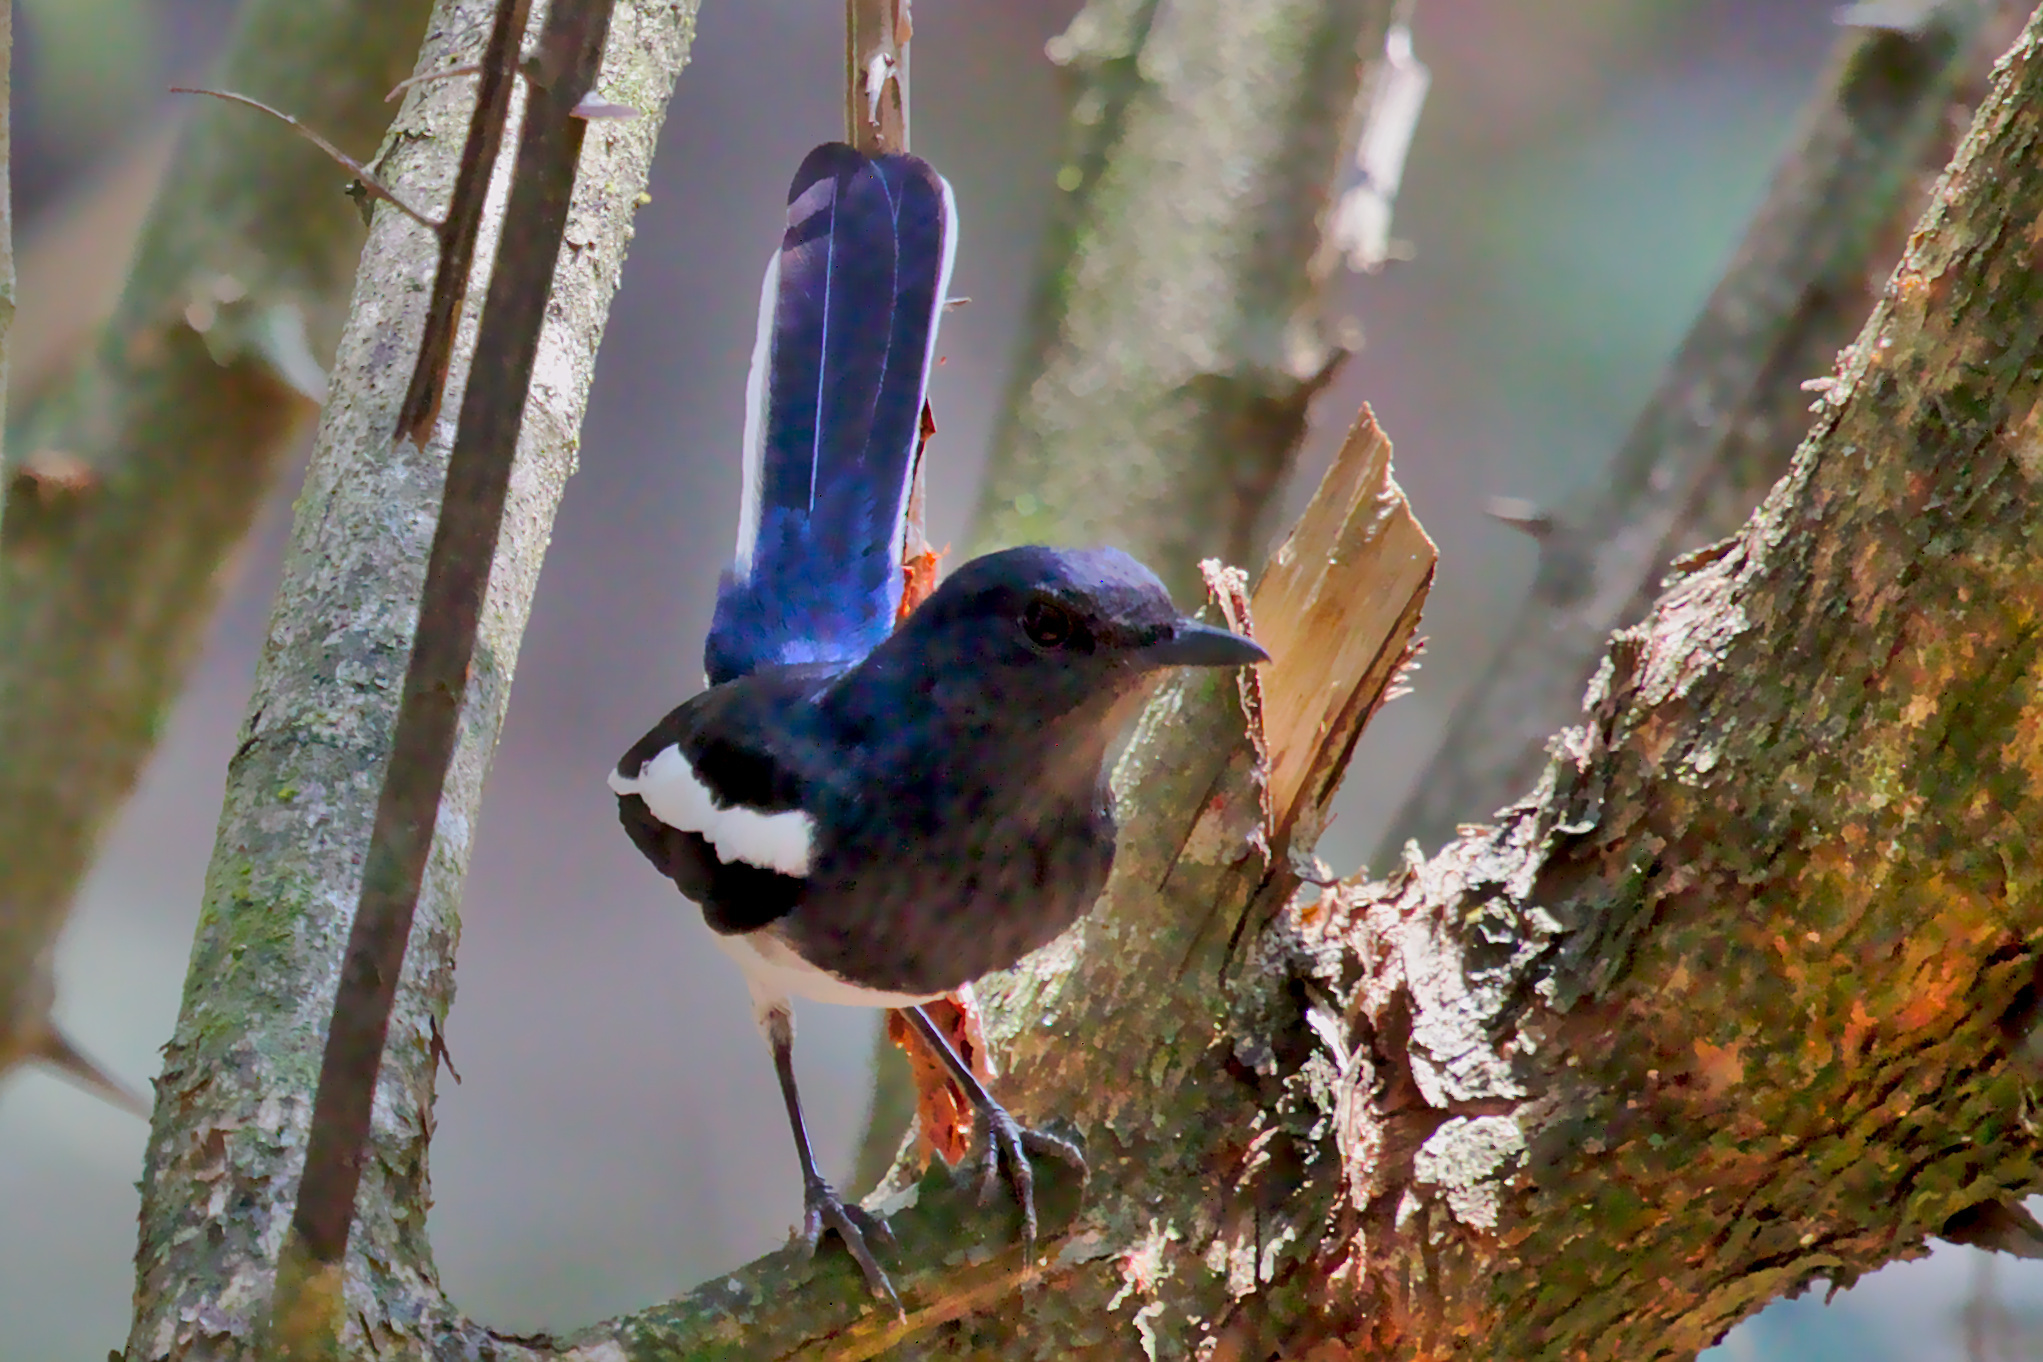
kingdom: Animalia
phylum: Chordata
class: Aves
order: Passeriformes
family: Muscicapidae
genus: Copsychus
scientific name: Copsychus saularis
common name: Oriental magpie-robin
